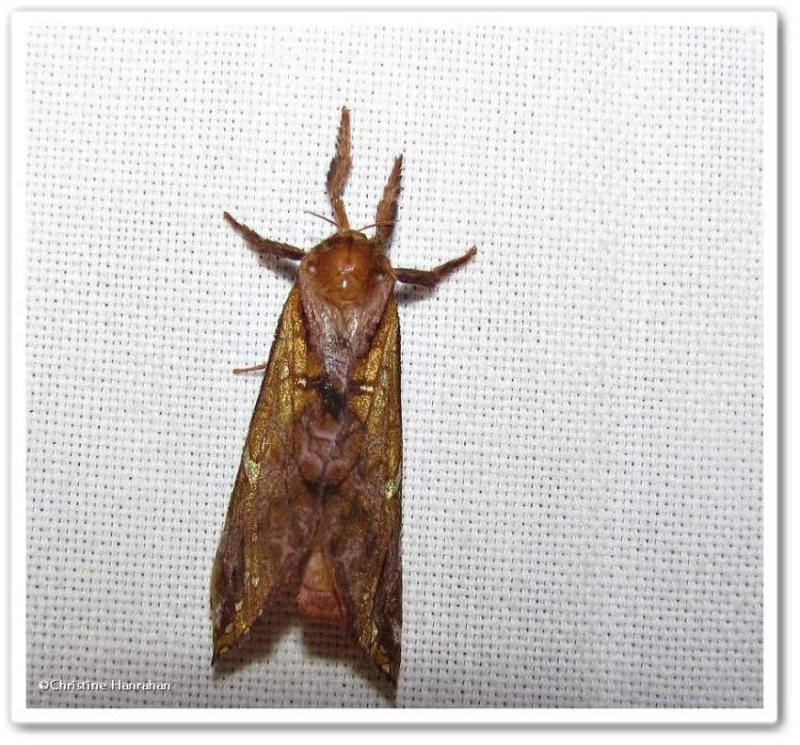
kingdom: Animalia
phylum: Arthropoda
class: Insecta
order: Lepidoptera
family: Hepialidae
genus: Sthenopis
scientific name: Sthenopis pretiosus
